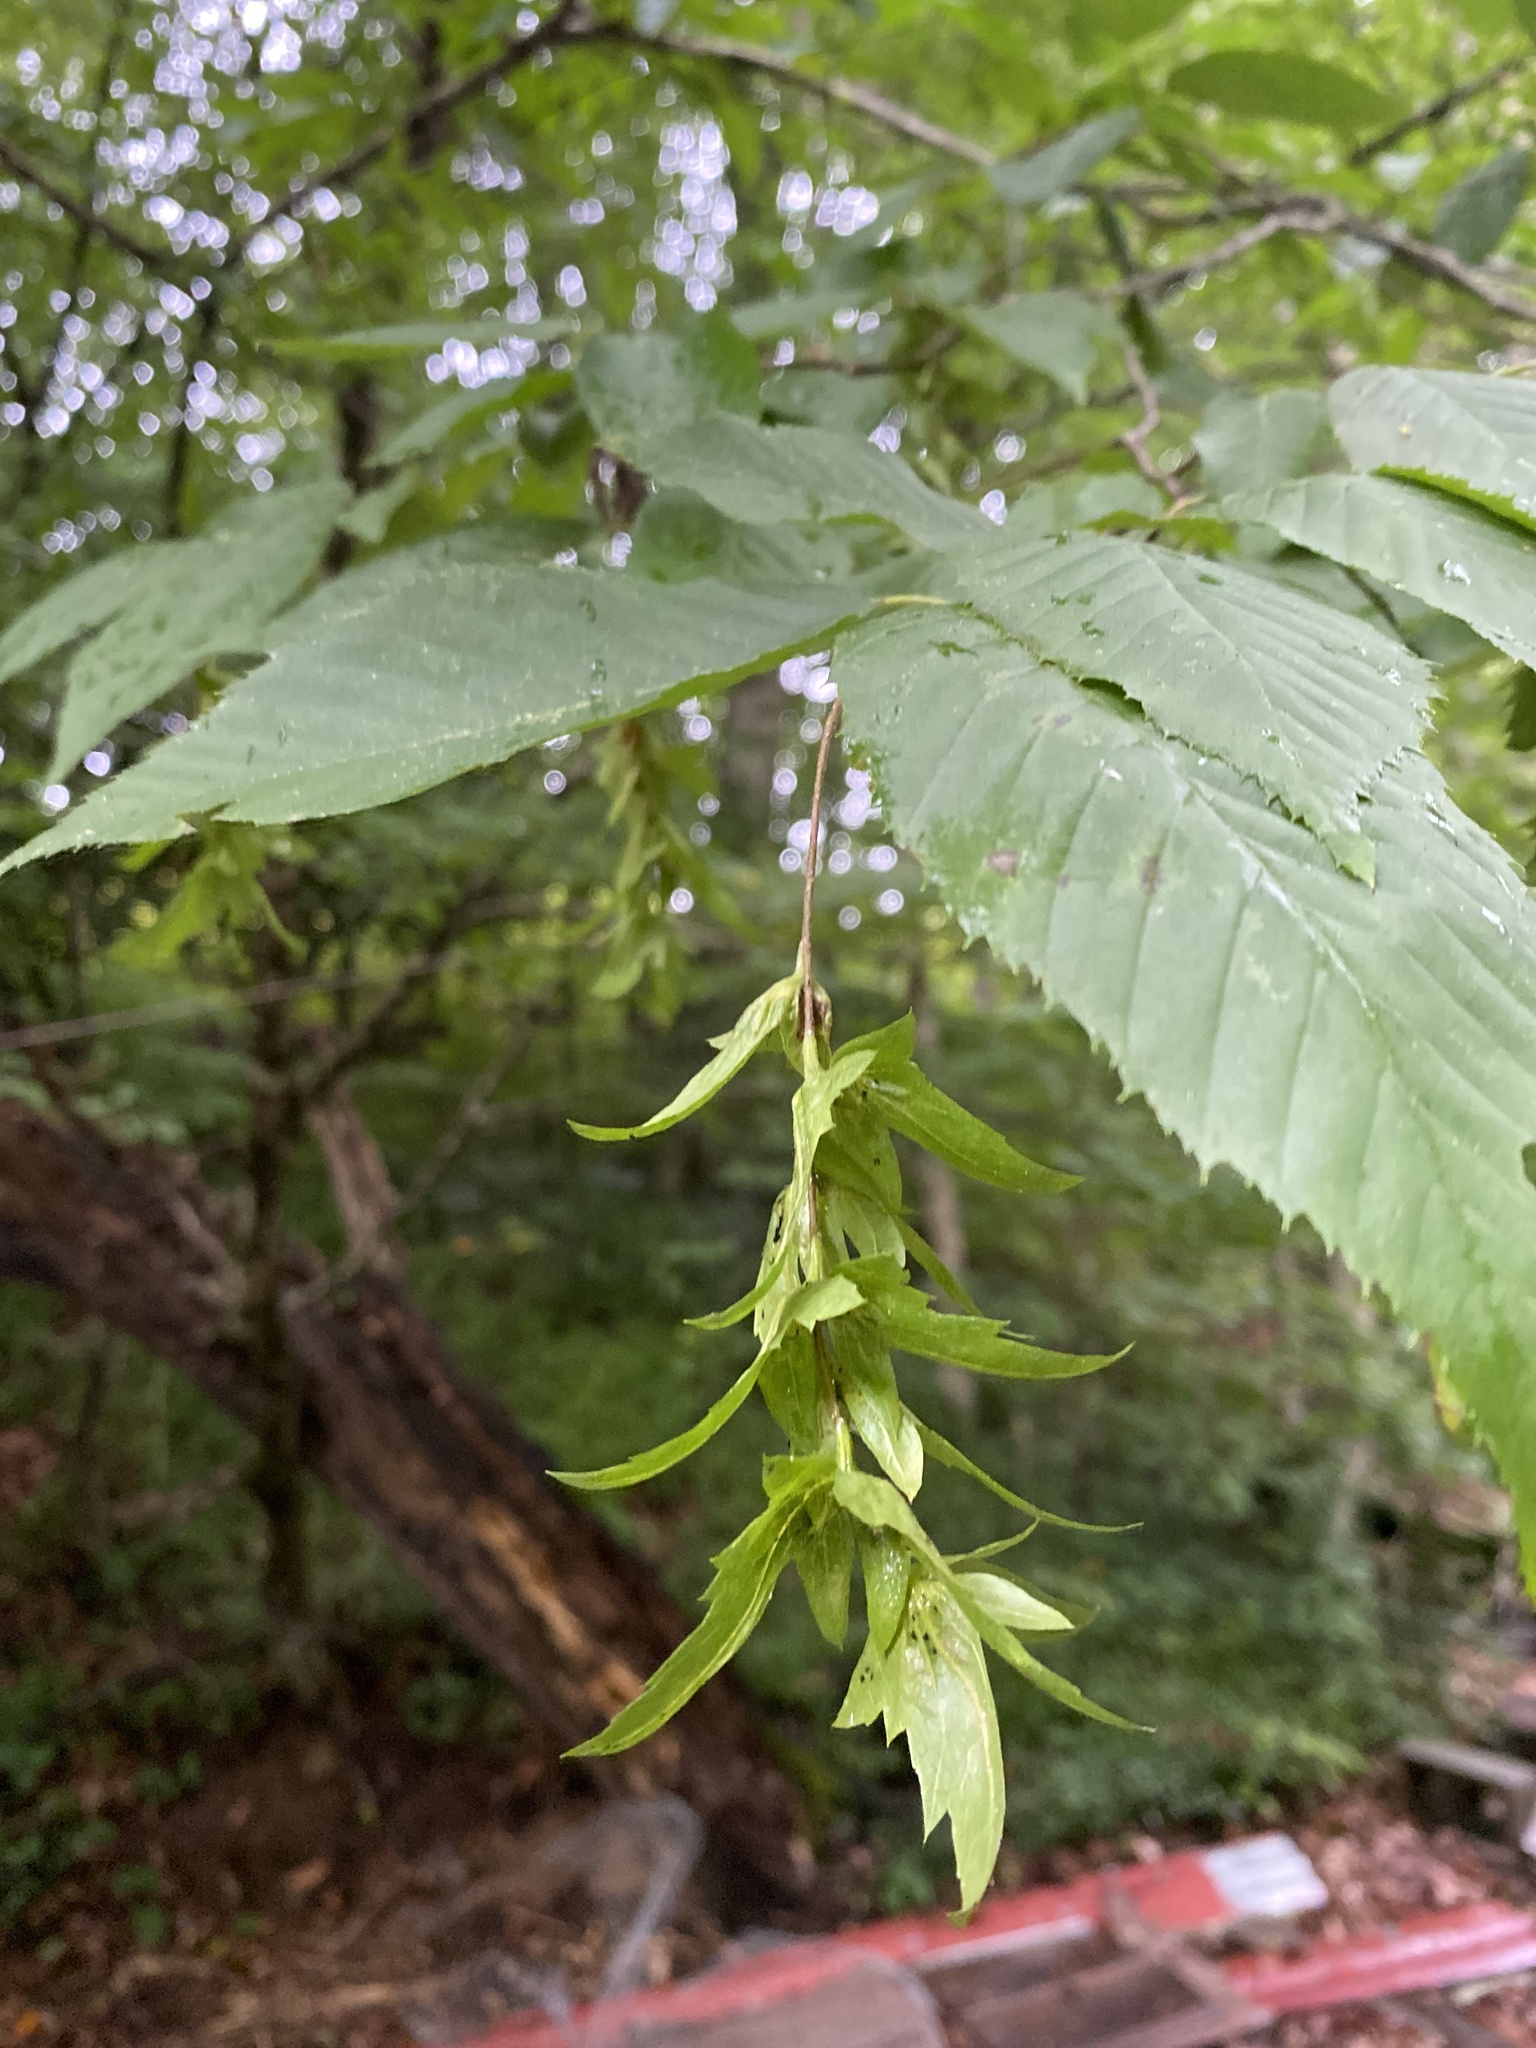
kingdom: Plantae
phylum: Tracheophyta
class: Magnoliopsida
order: Fagales
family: Betulaceae
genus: Carpinus
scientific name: Carpinus caroliniana
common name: American hornbeam
